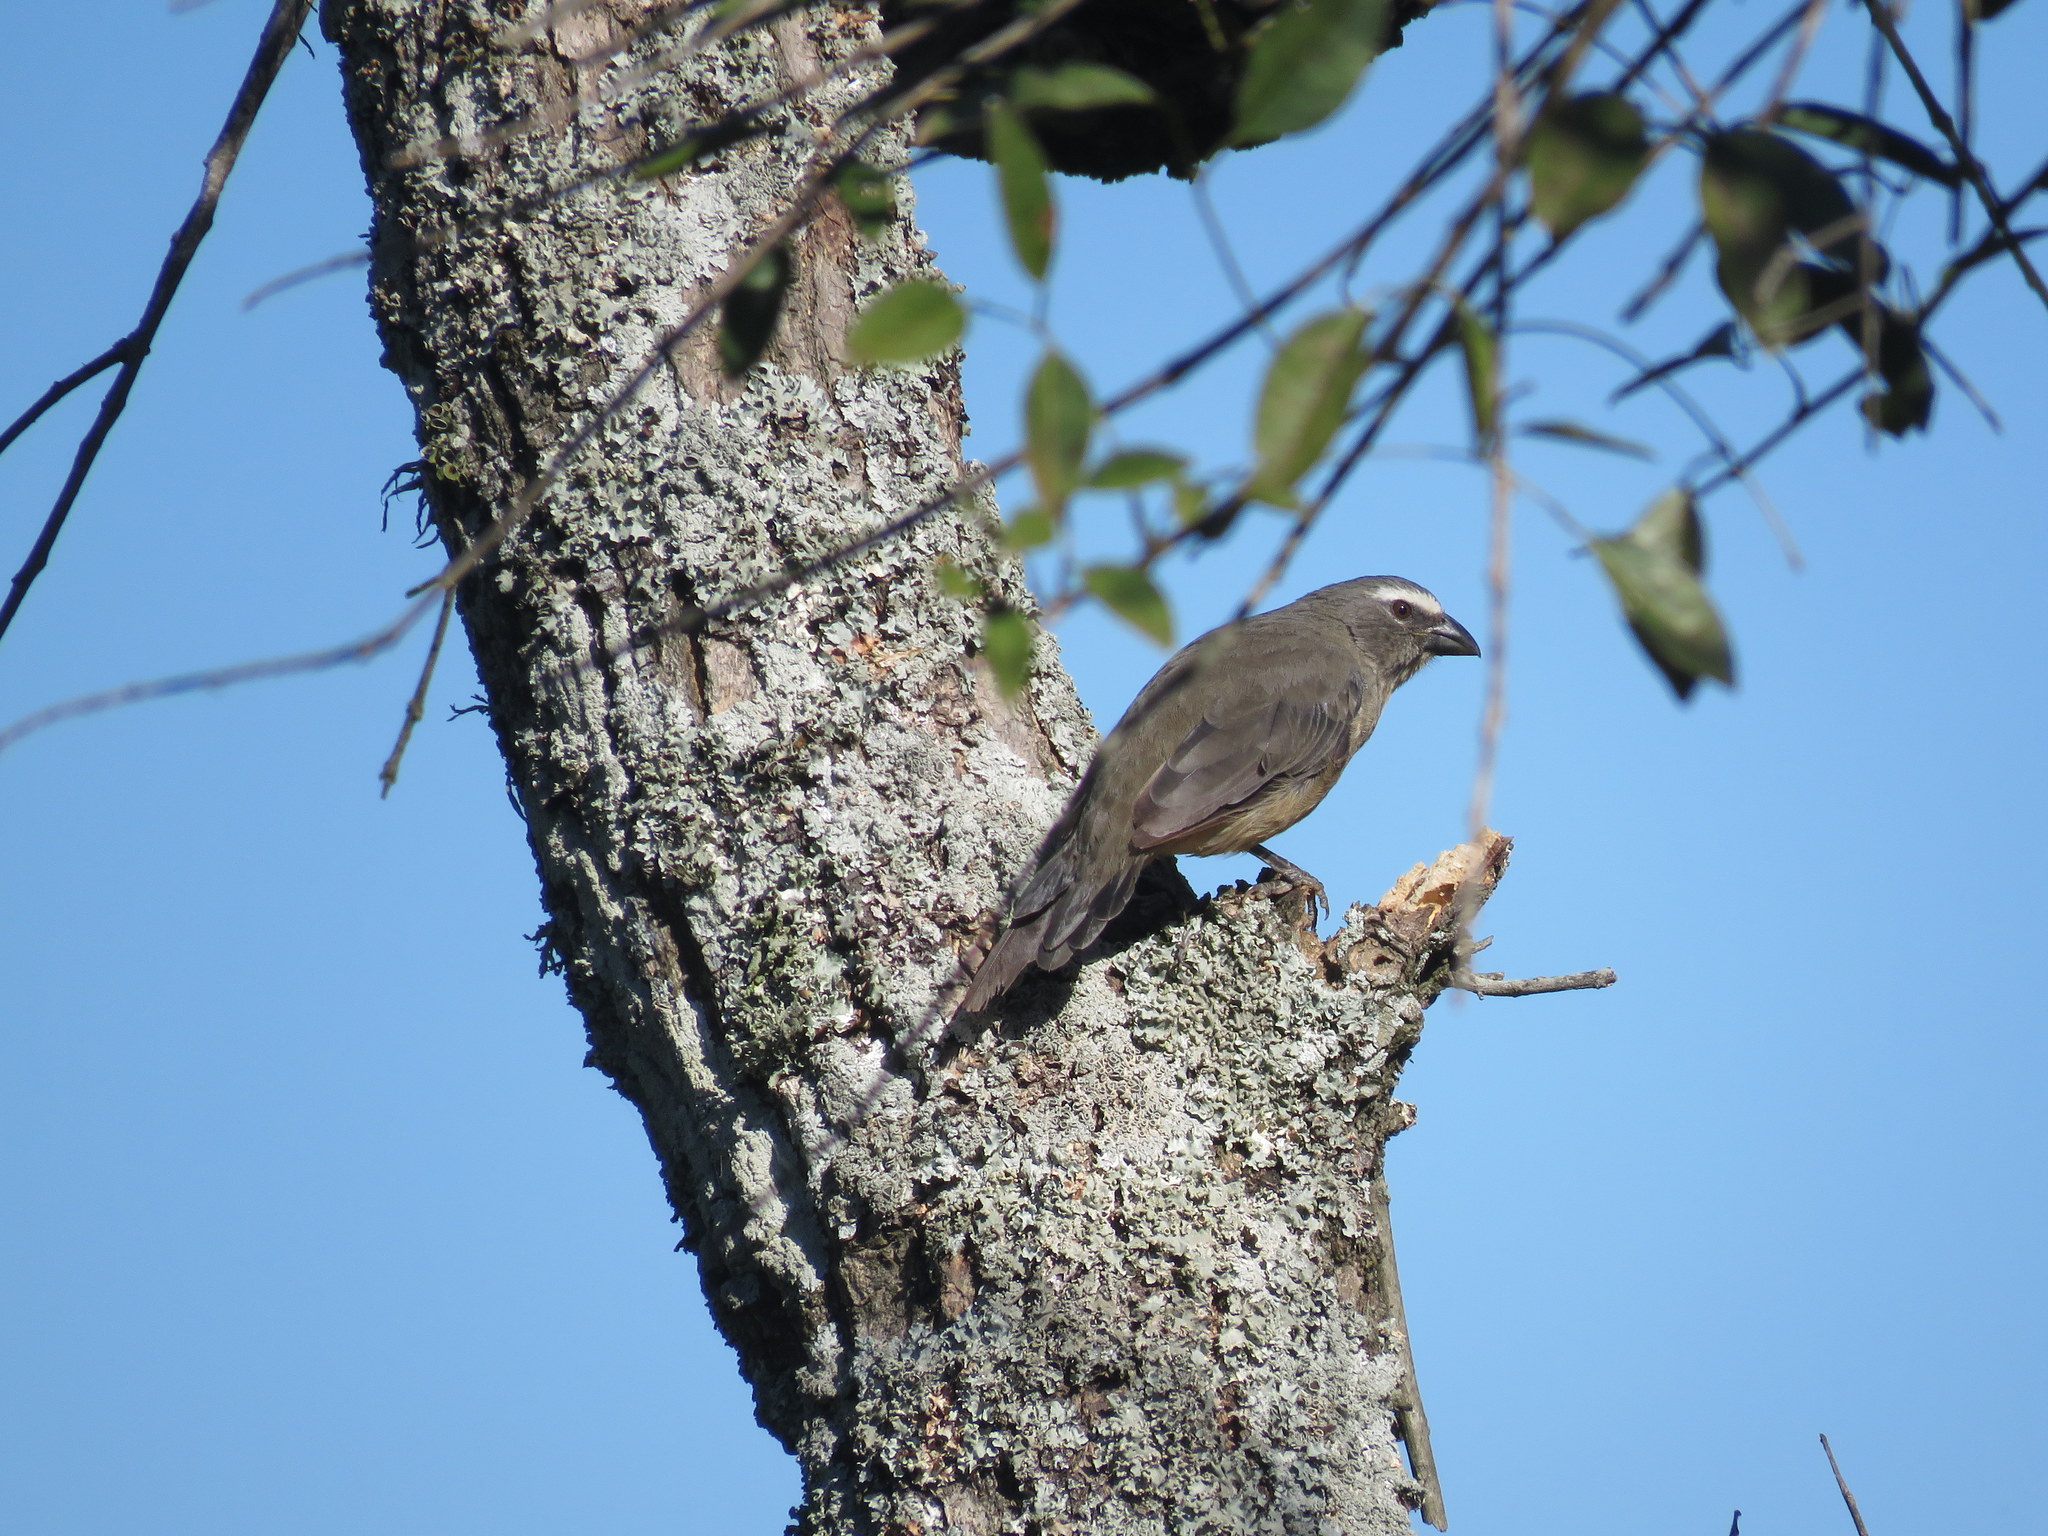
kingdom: Animalia
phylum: Chordata
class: Aves
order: Passeriformes
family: Thraupidae
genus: Saltator
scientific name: Saltator coerulescens
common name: Grayish saltator
